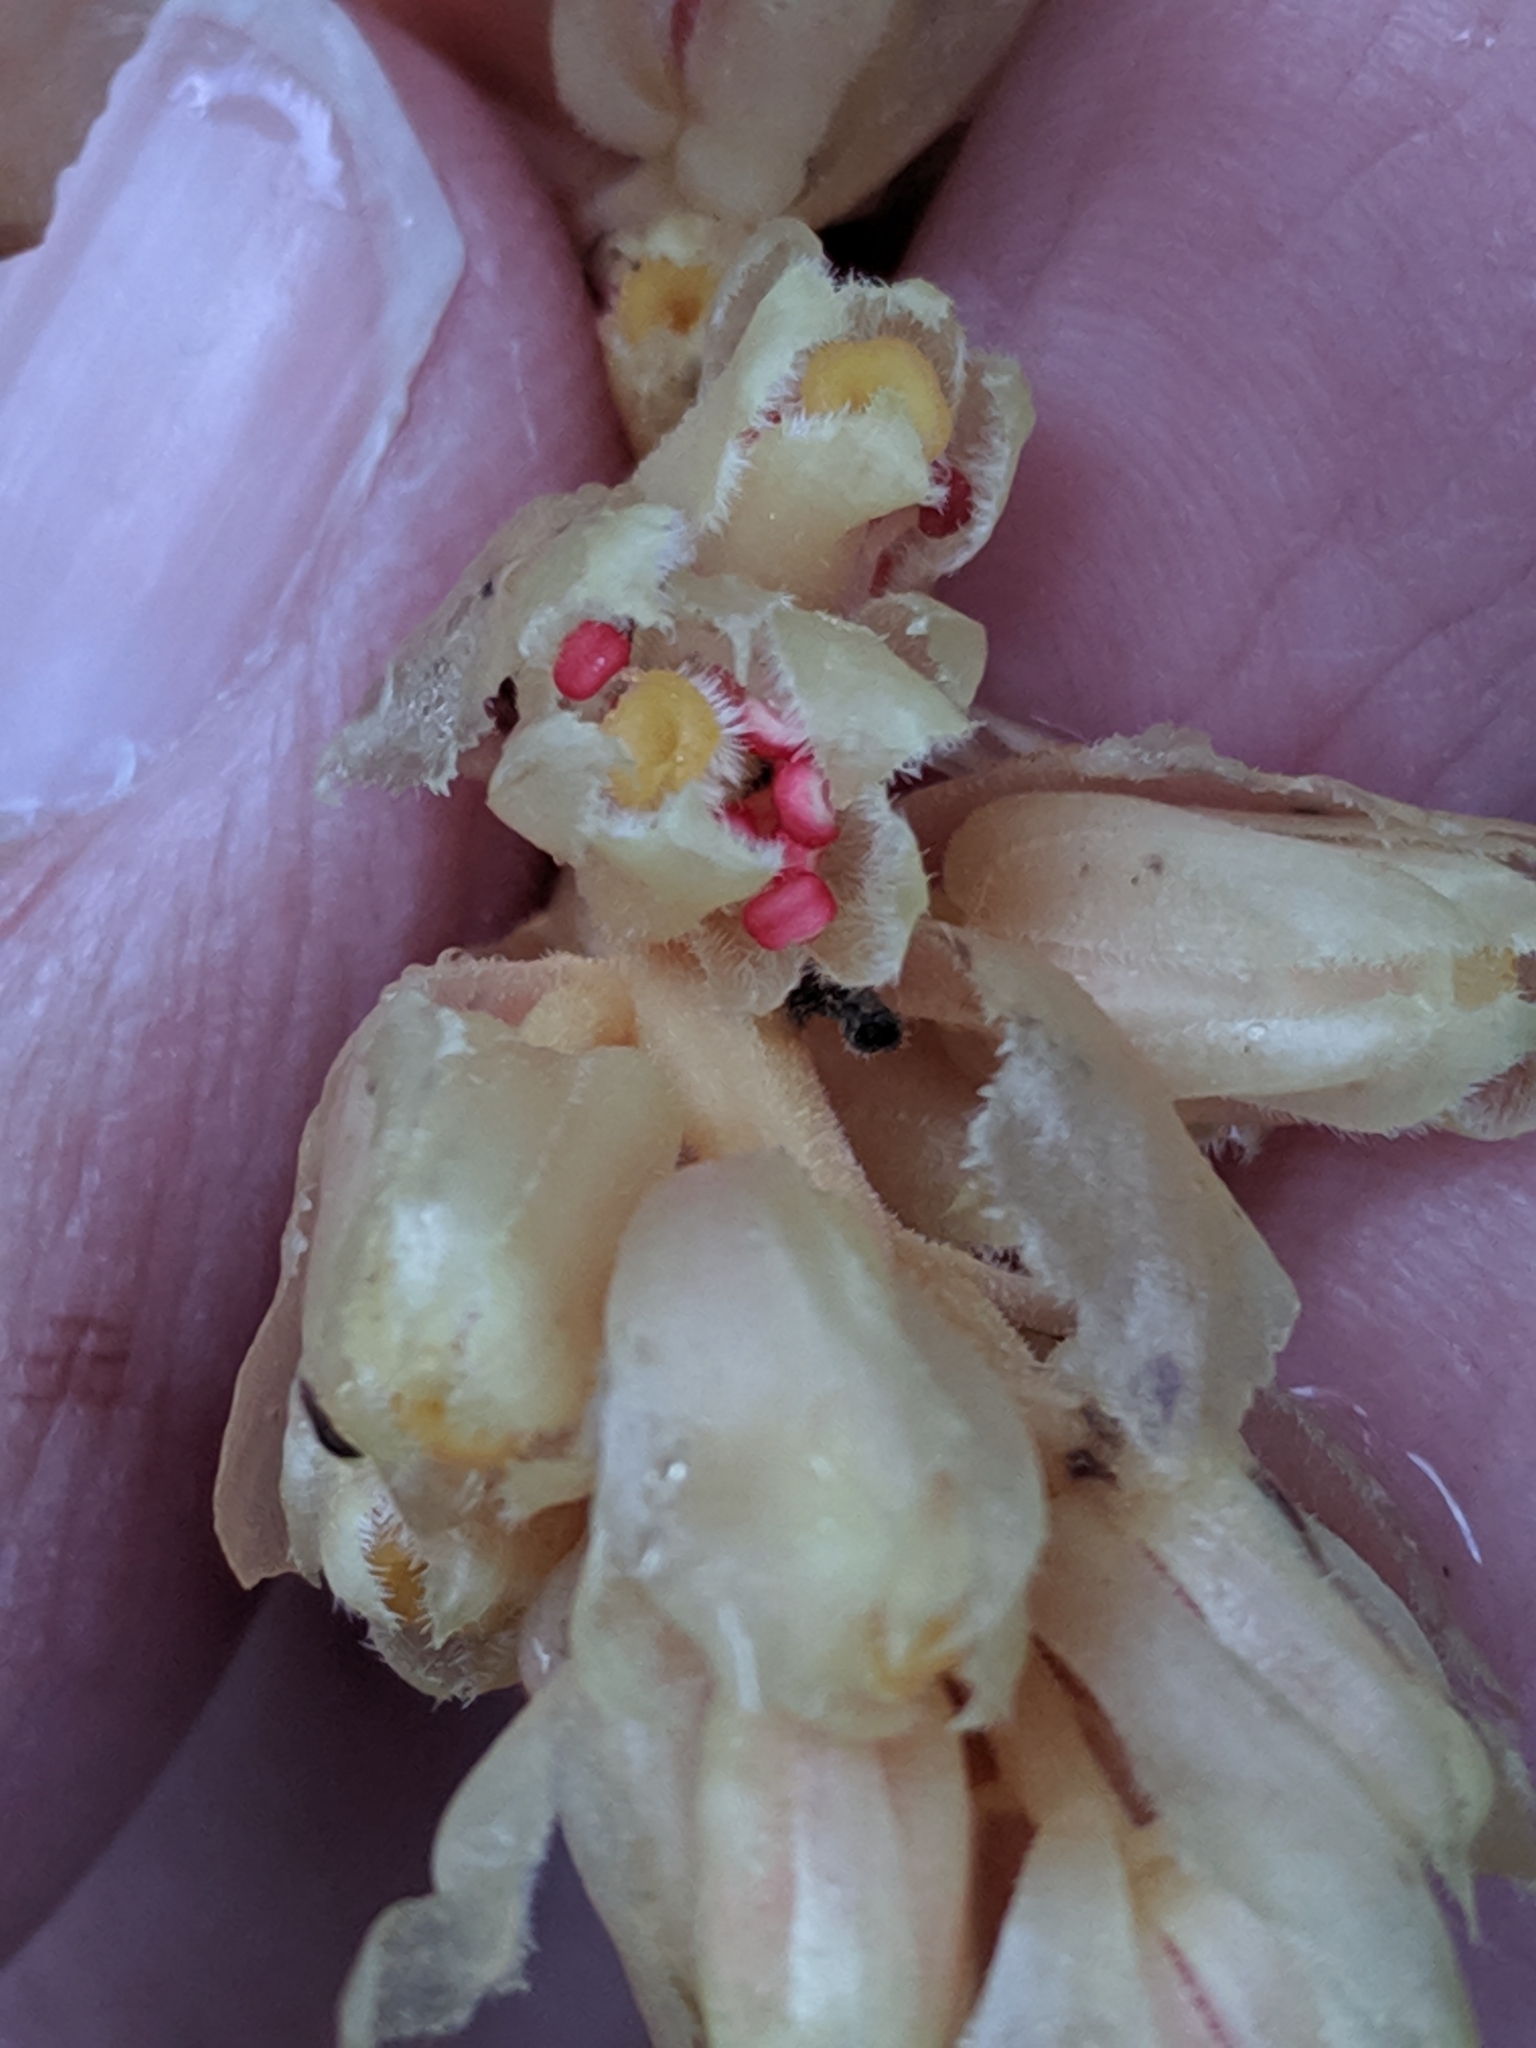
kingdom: Plantae
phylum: Tracheophyta
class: Magnoliopsida
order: Ericales
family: Ericaceae
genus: Hypopitys
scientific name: Hypopitys monotropa
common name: Yellow bird's-nest
